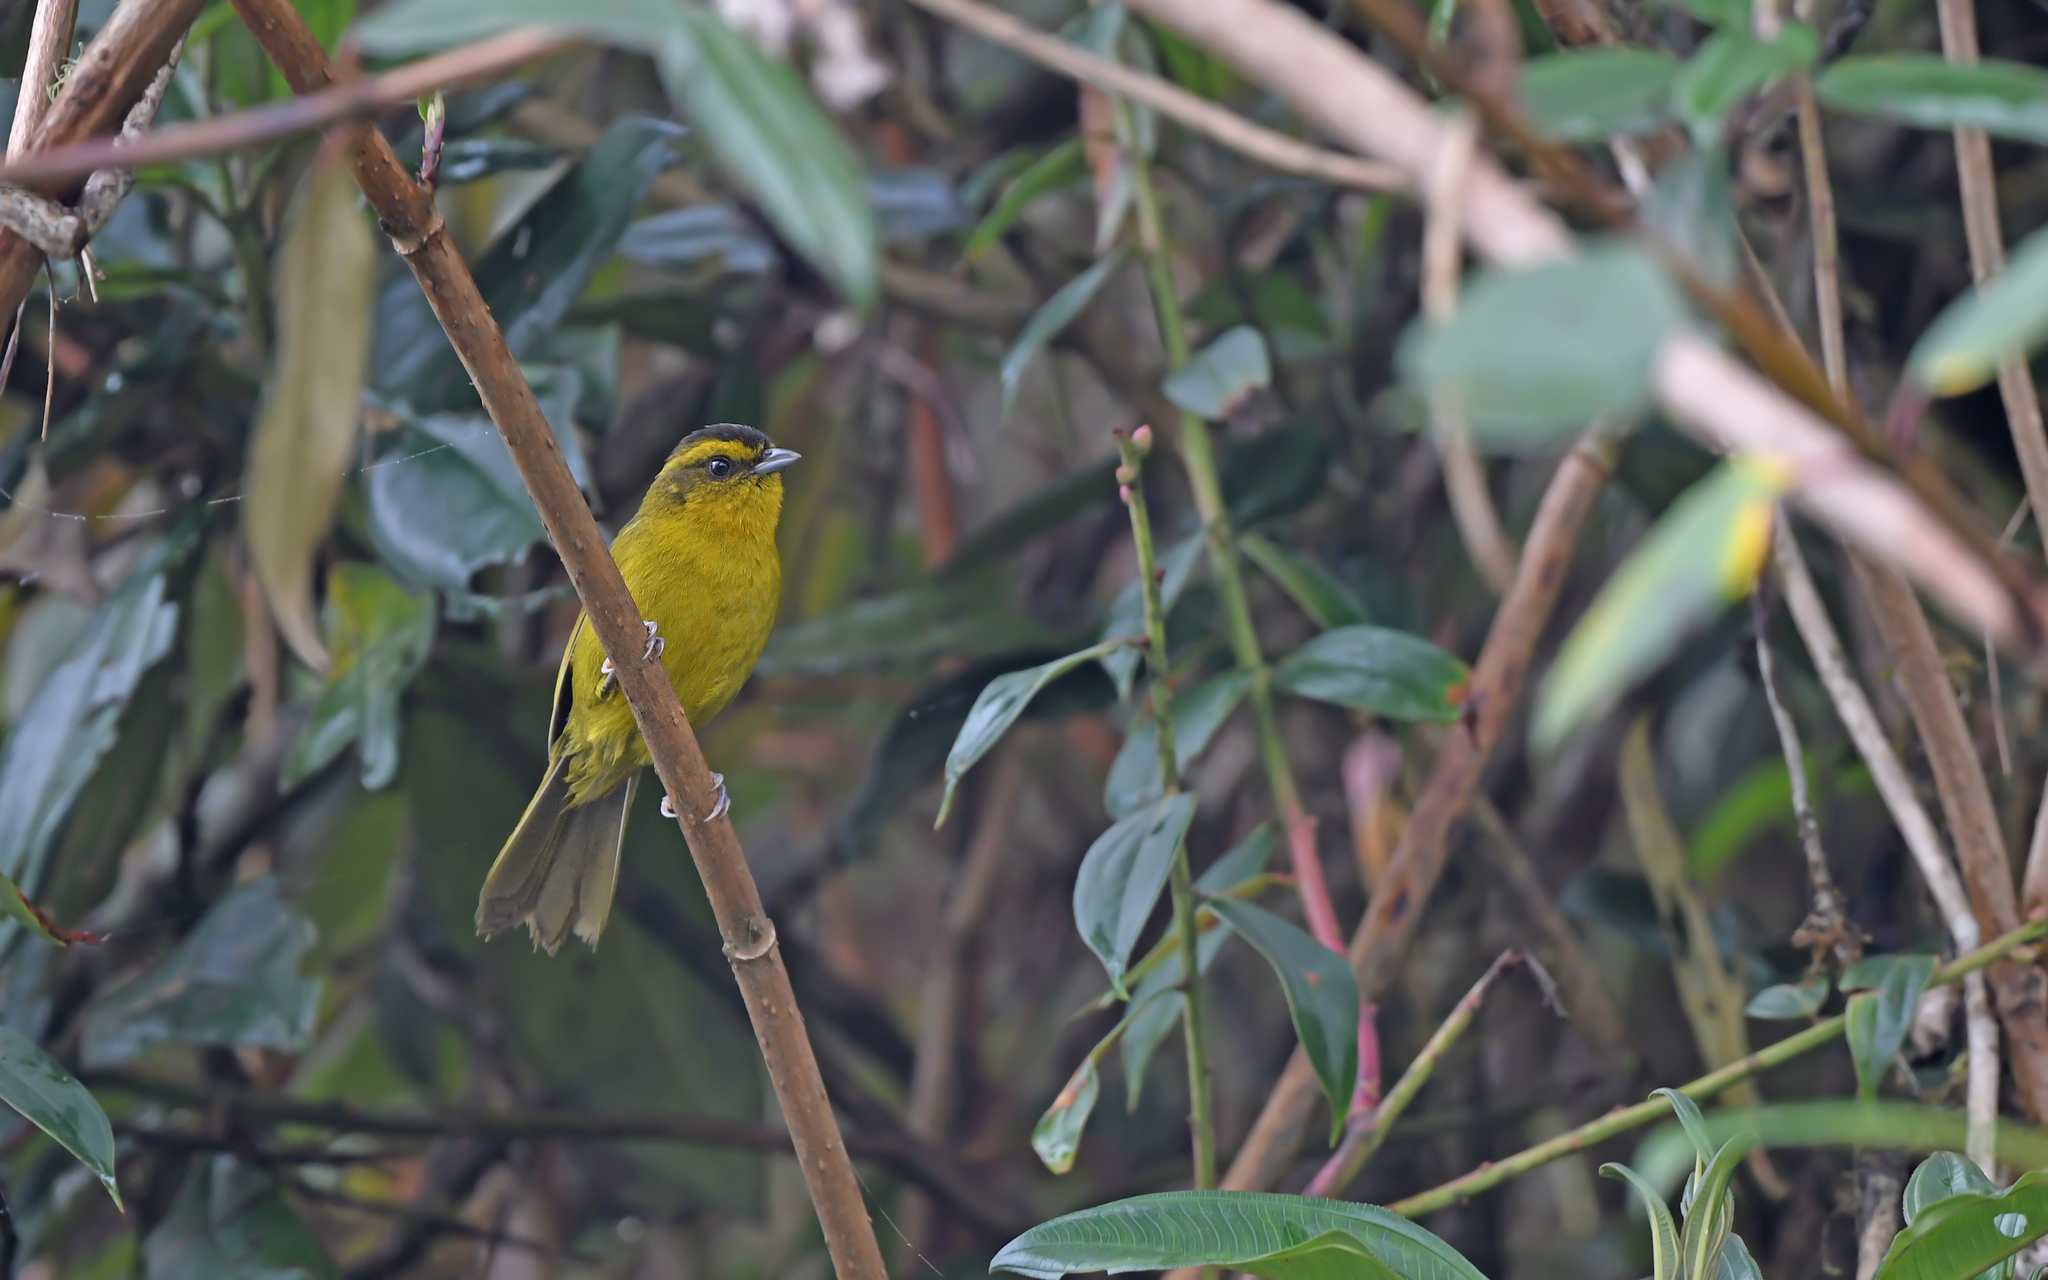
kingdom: Animalia
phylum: Chordata
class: Aves
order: Passeriformes
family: Thraupidae
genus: Kleinothraupis
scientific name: Kleinothraupis parodii
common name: Parodi's hemispingus
